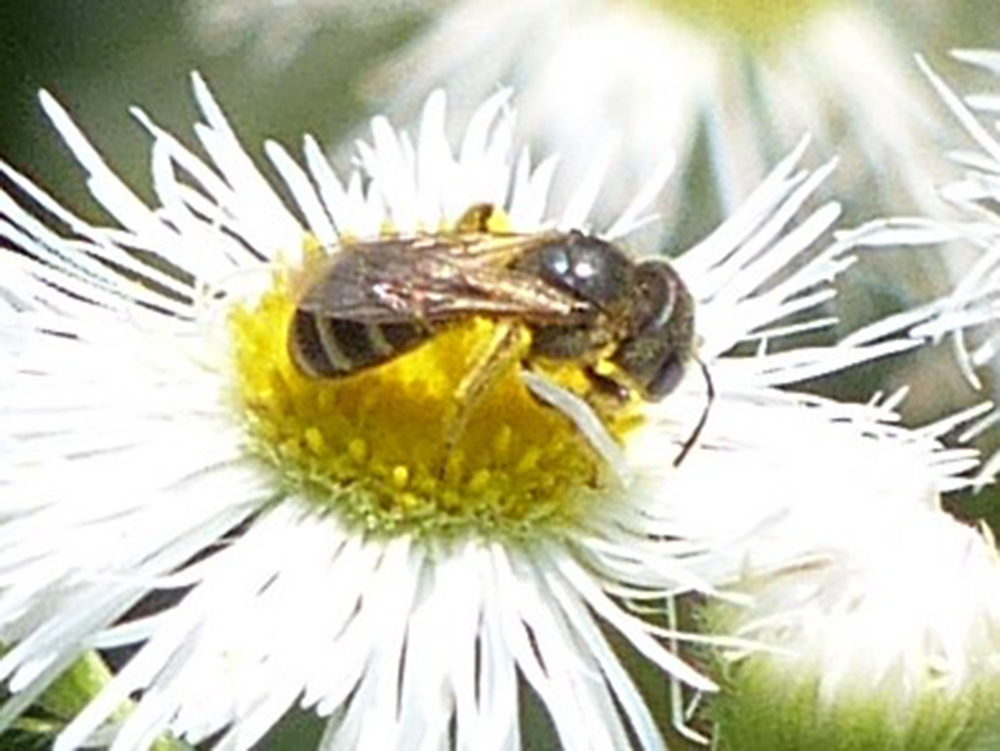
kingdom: Animalia
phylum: Arthropoda
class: Insecta
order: Hymenoptera
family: Halictidae
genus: Halictus
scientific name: Halictus ligatus
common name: Ligated furrow bee
